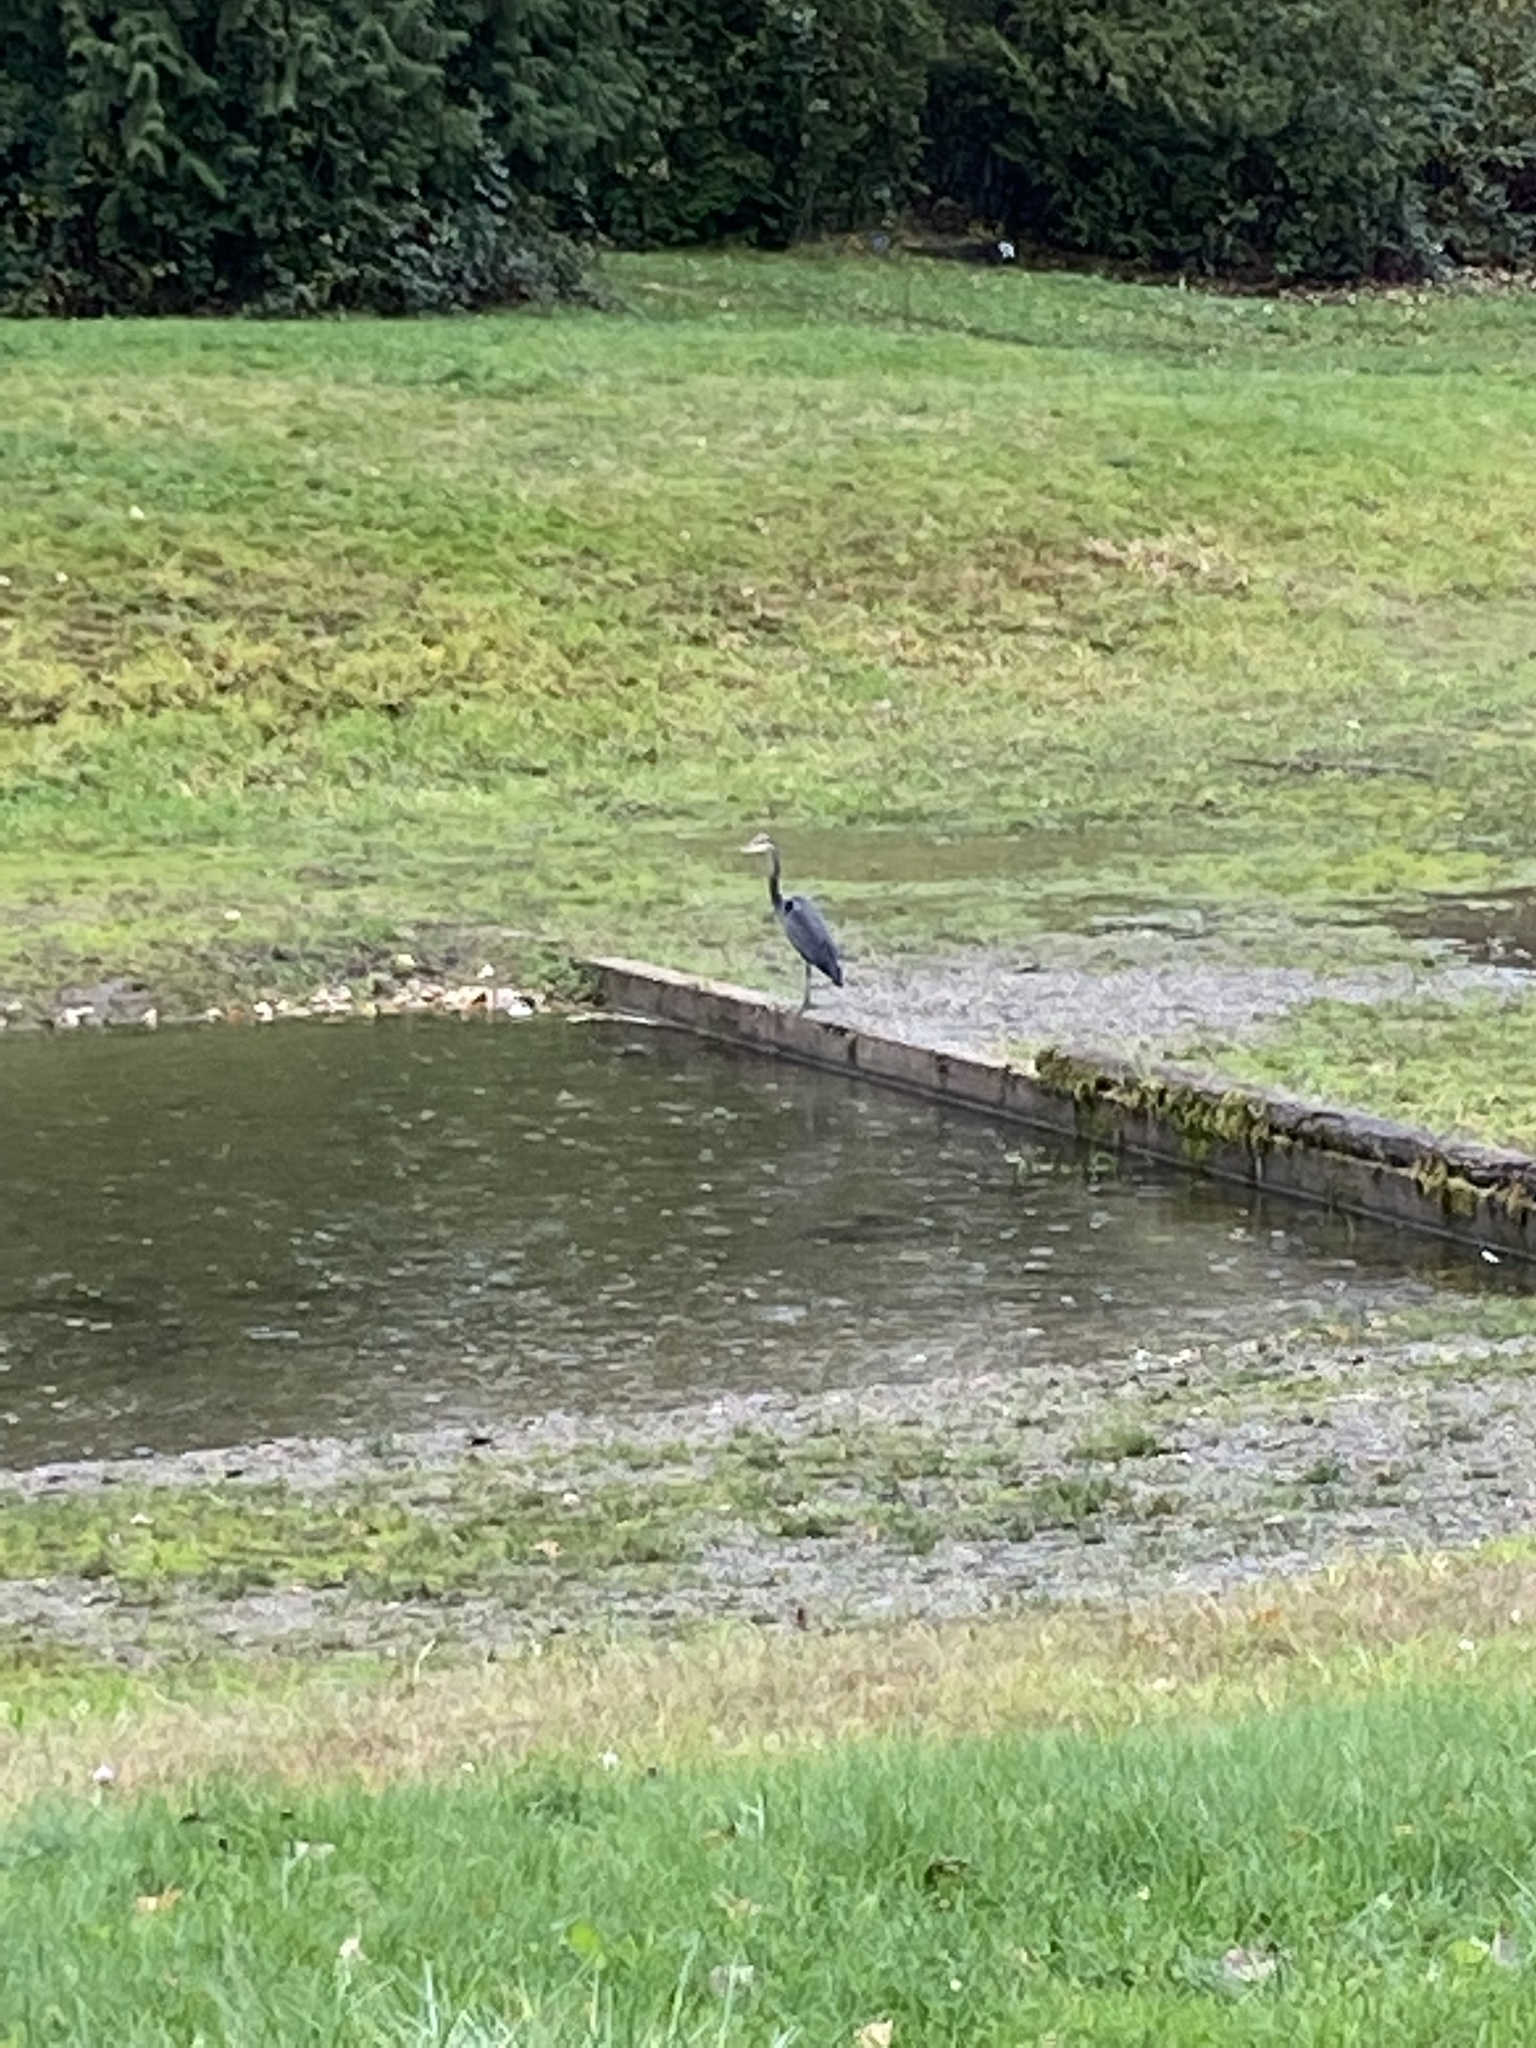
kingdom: Animalia
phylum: Chordata
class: Aves
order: Pelecaniformes
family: Ardeidae
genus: Ardea
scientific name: Ardea herodias
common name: Great blue heron
